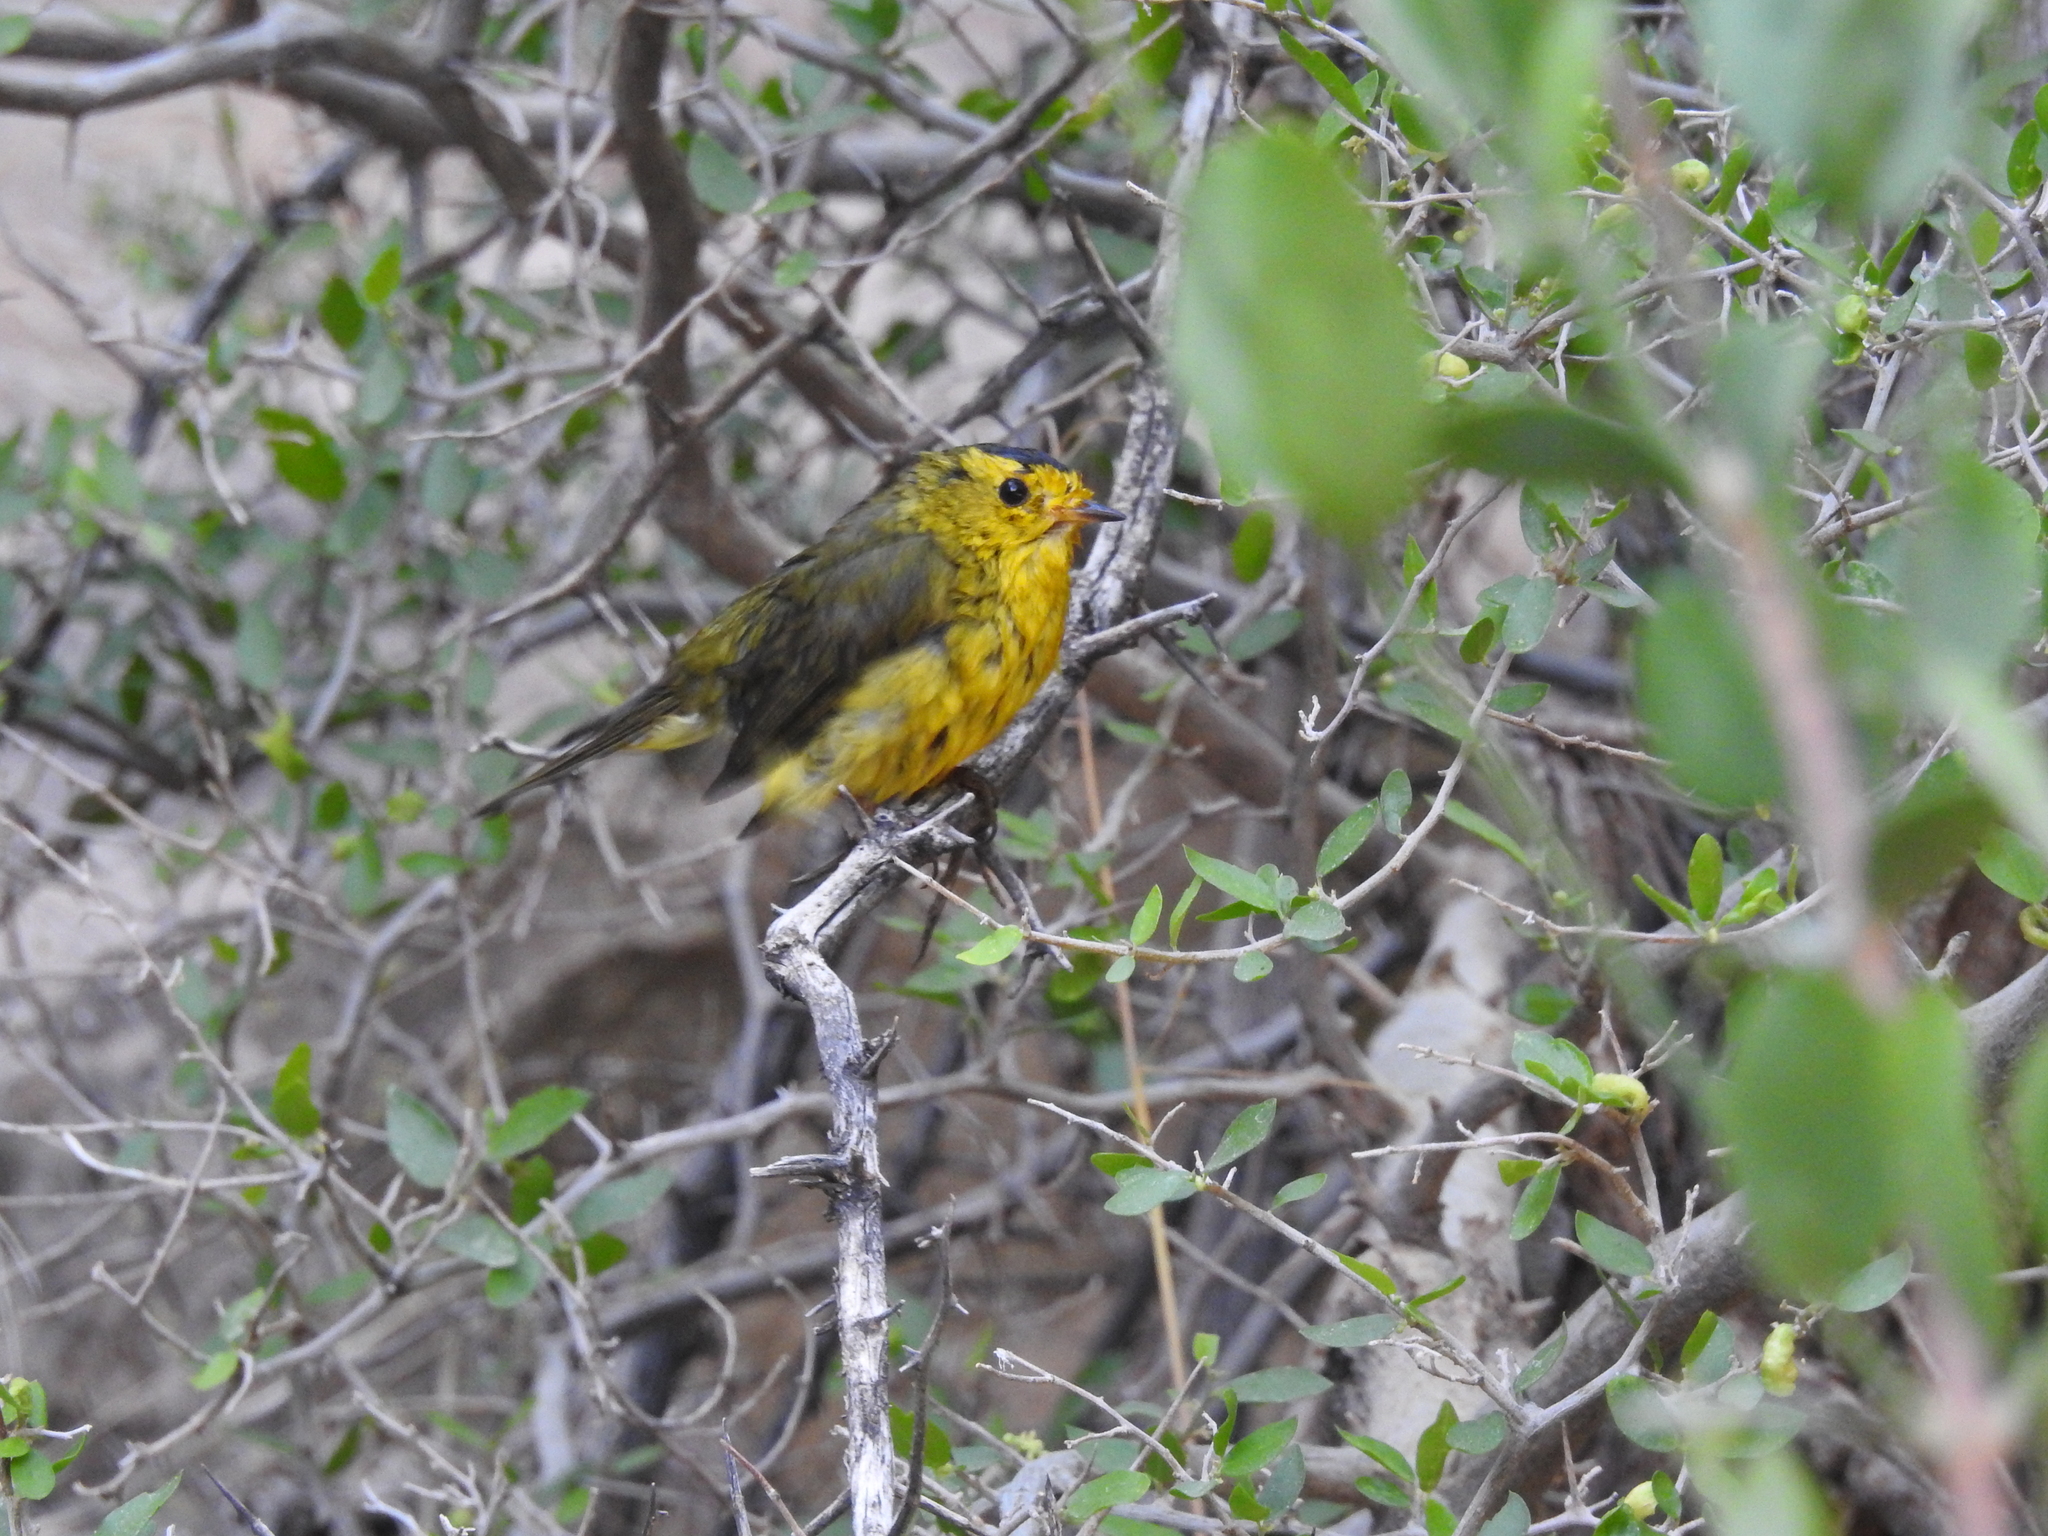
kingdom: Animalia
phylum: Chordata
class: Aves
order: Passeriformes
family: Parulidae
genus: Cardellina
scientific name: Cardellina pusilla
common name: Wilson's warbler
